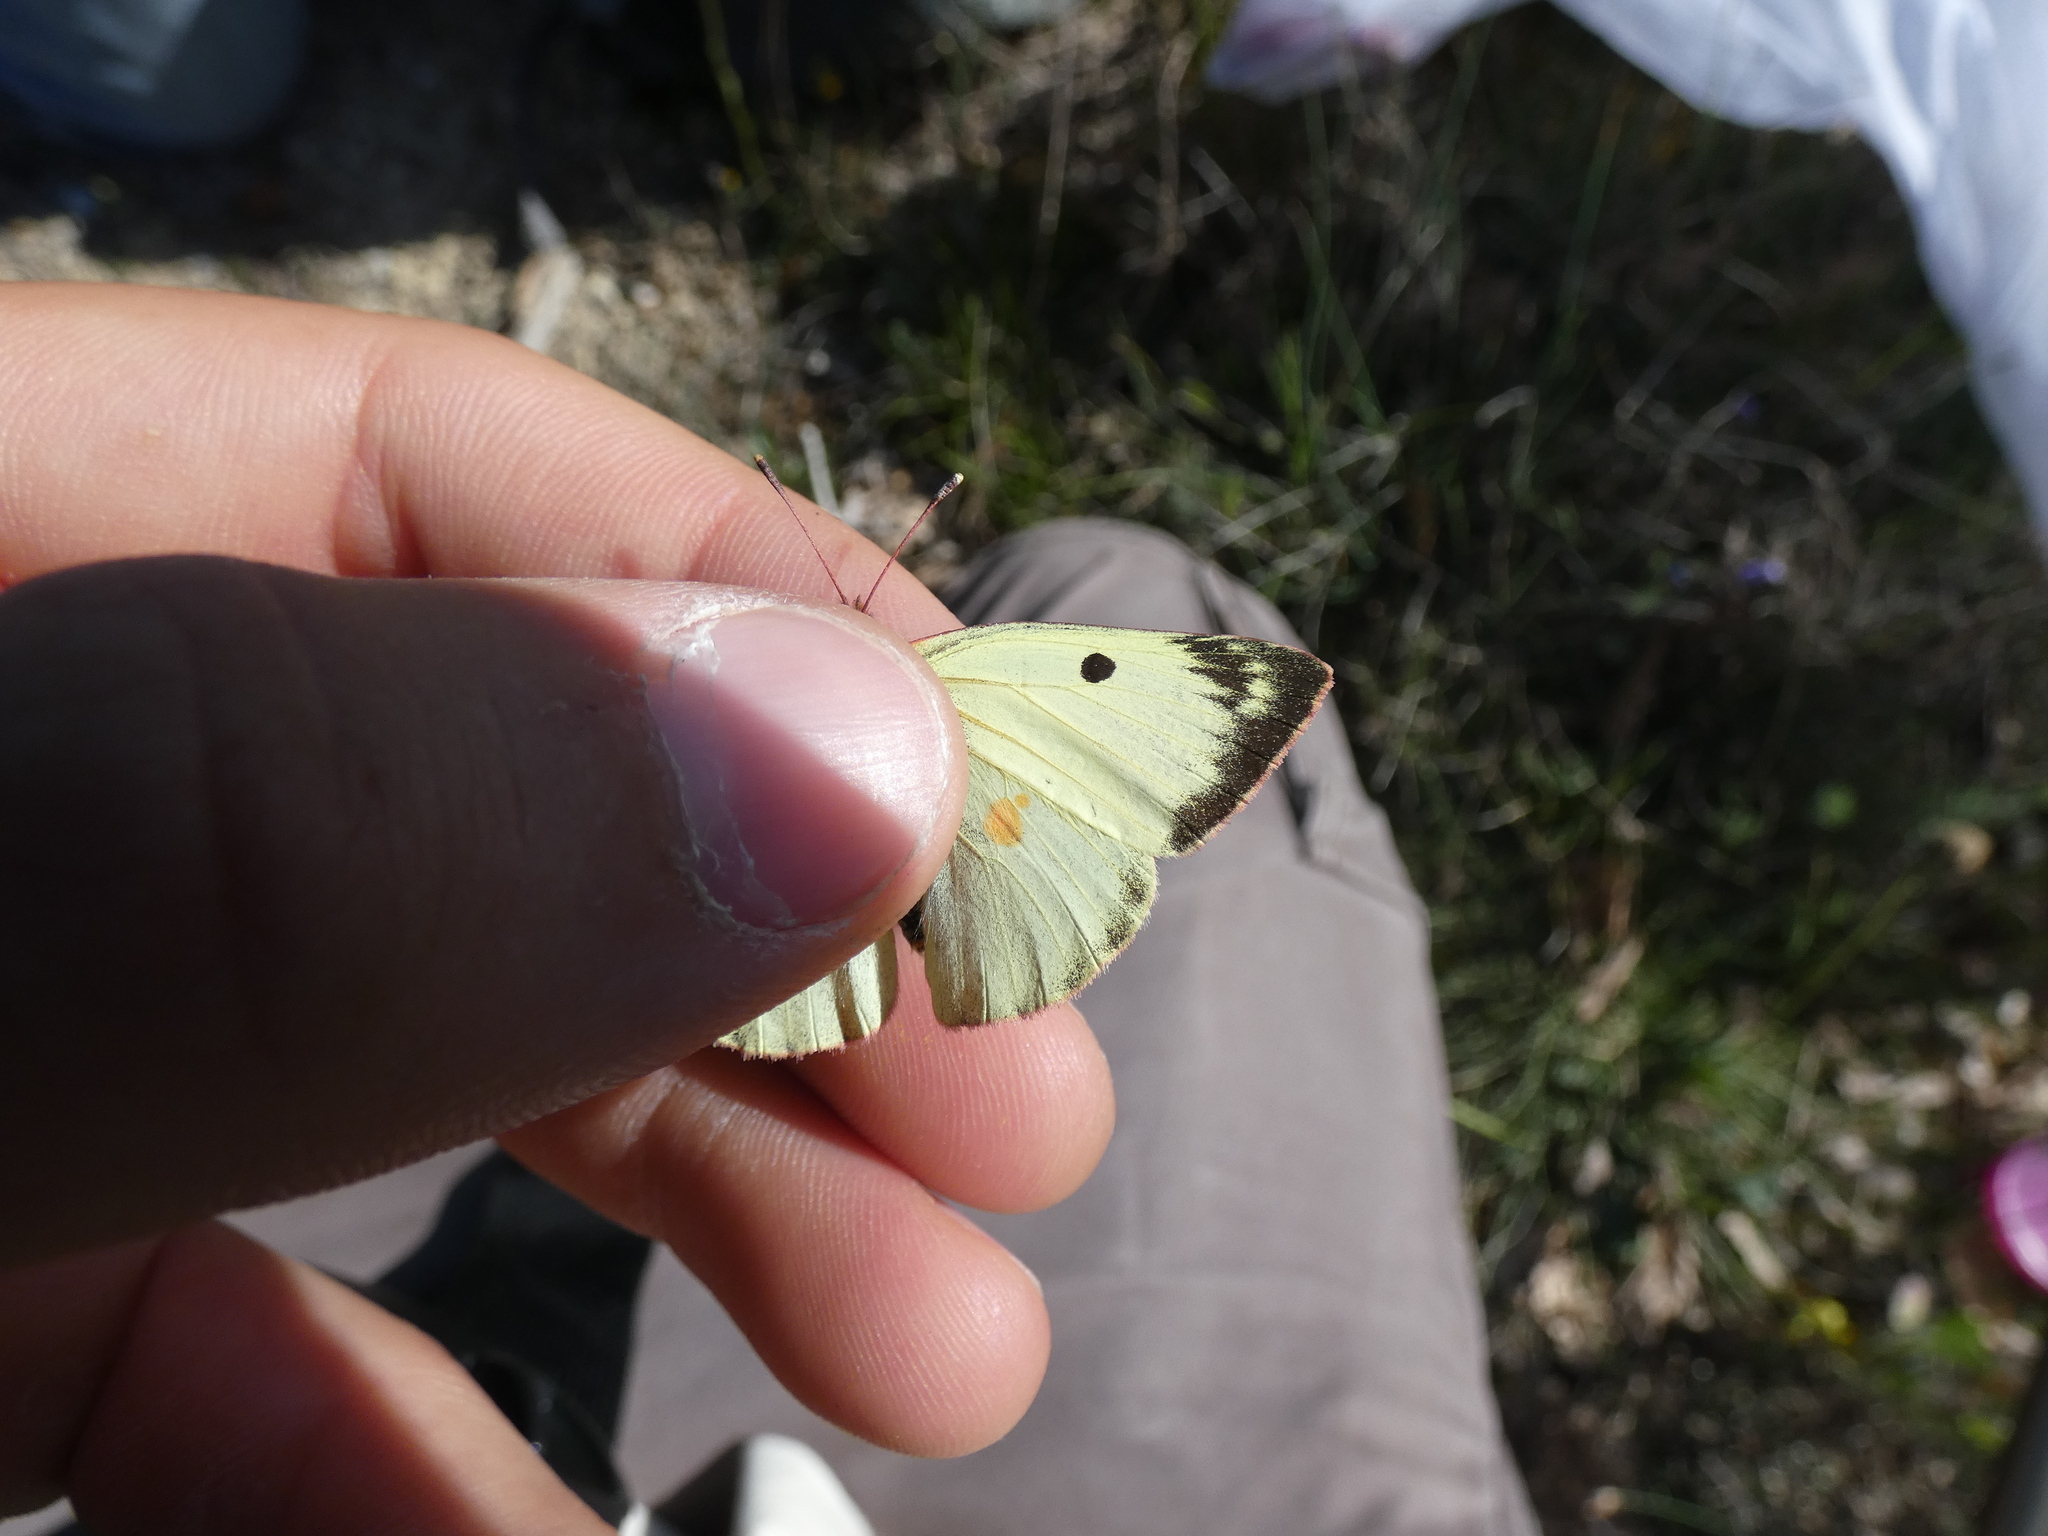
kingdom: Animalia
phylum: Arthropoda
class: Insecta
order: Lepidoptera
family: Pieridae
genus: Colias
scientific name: Colias alfacariensis
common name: Berger's clouded yellow
